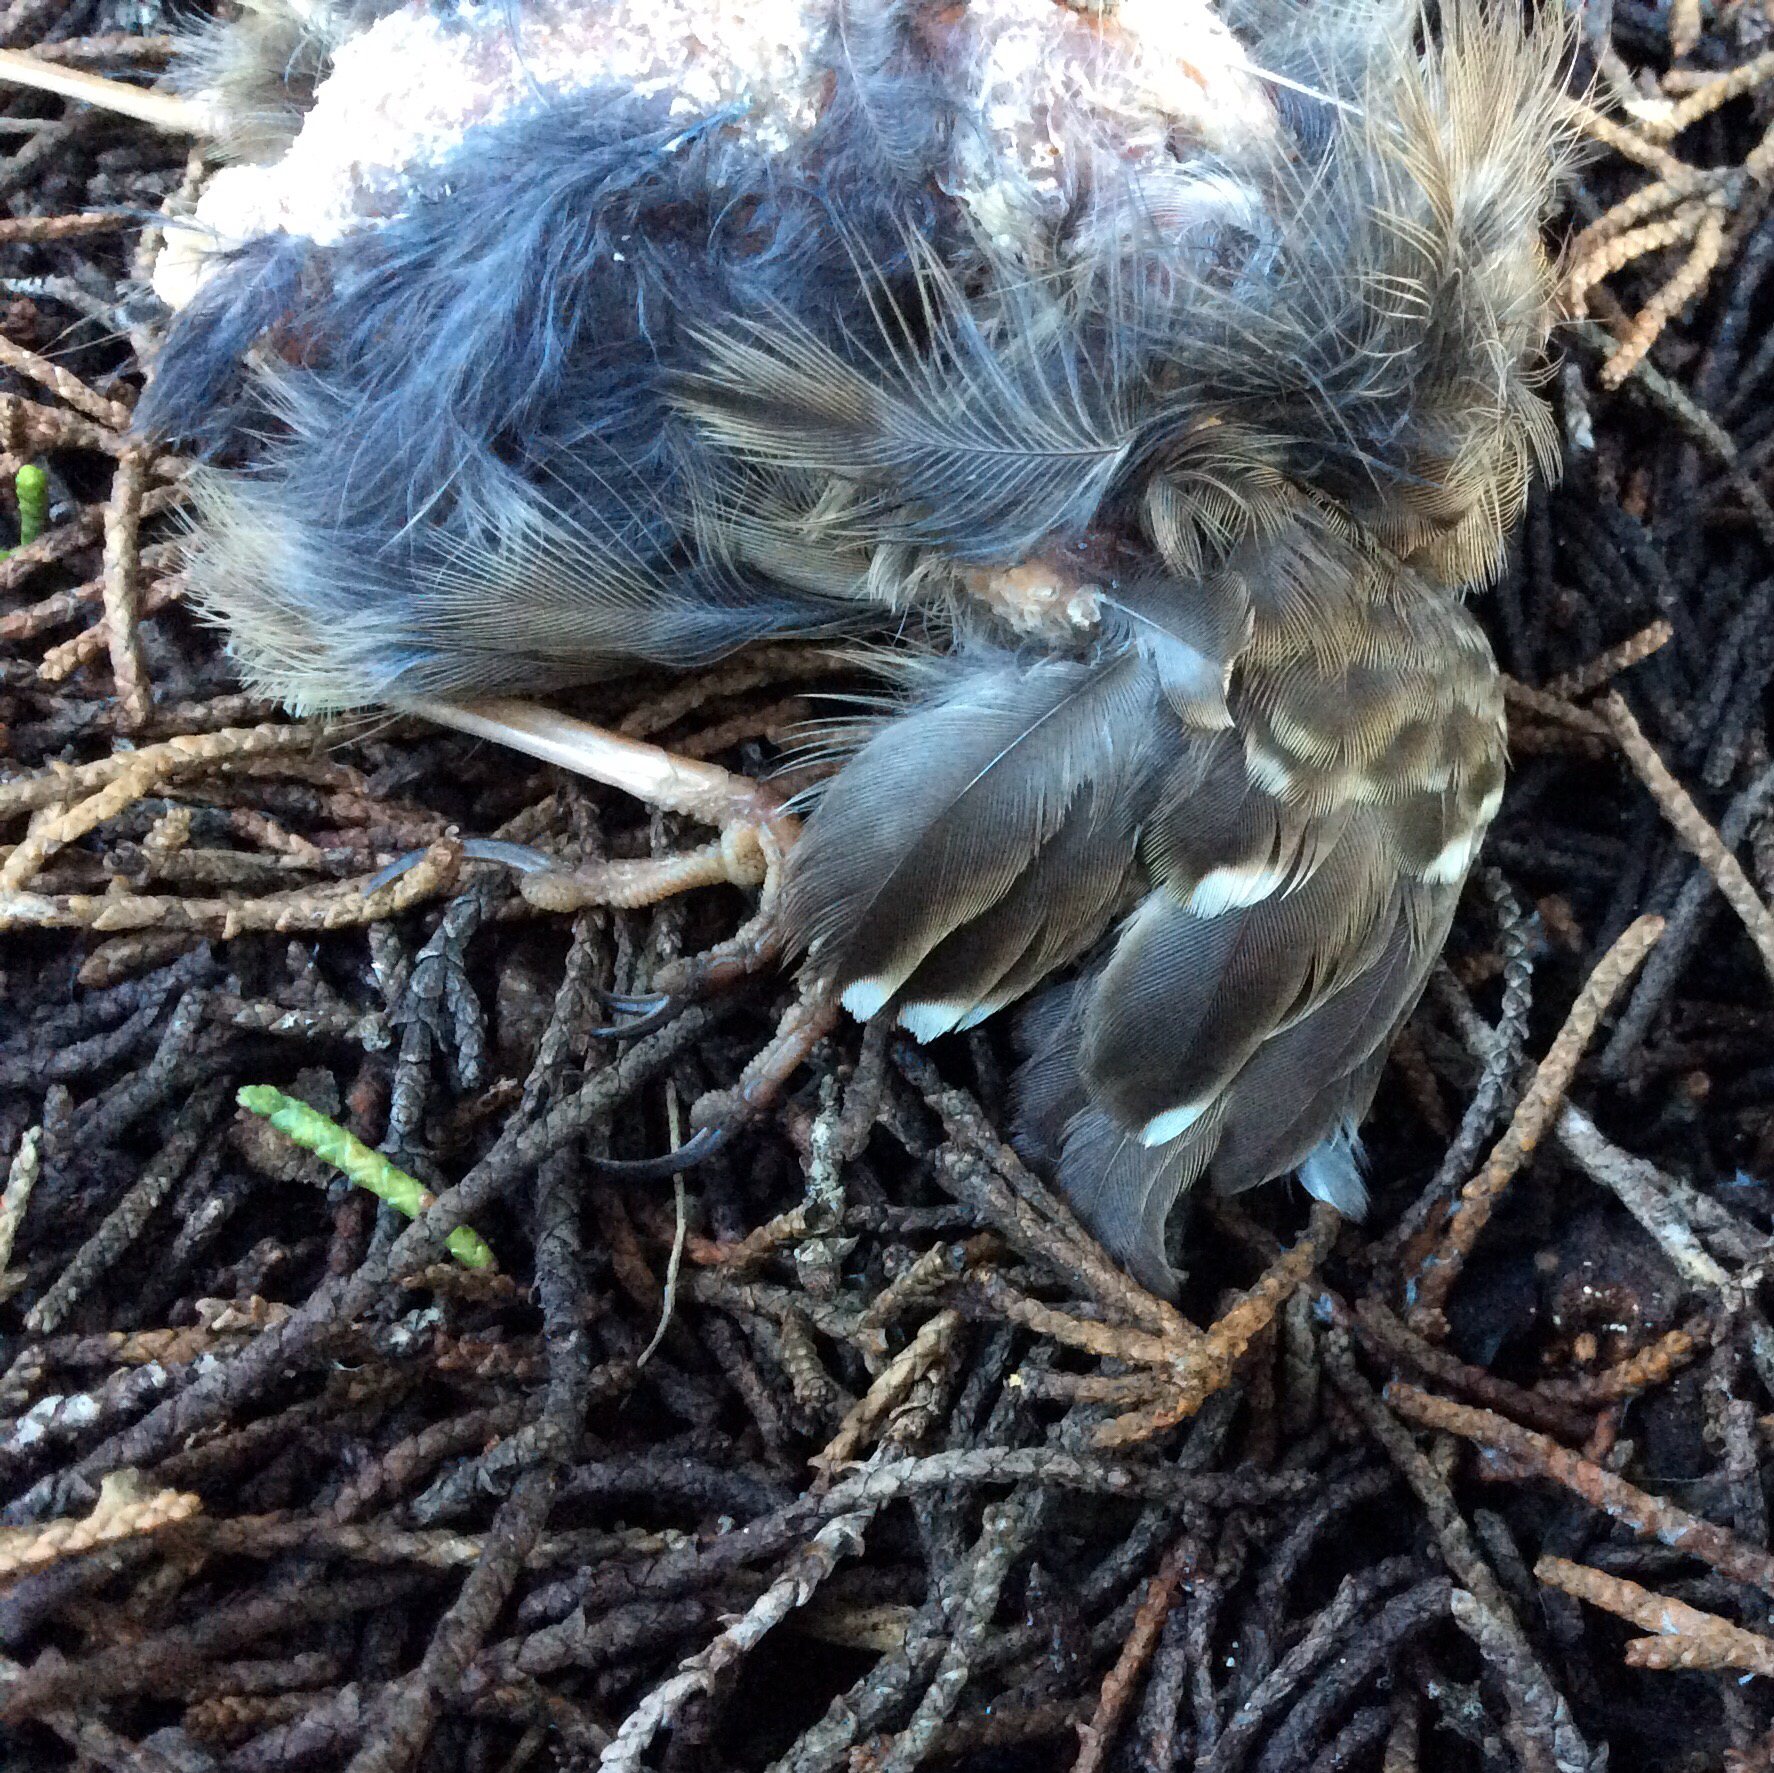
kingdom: Animalia
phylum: Chordata
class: Aves
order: Passeriformes
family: Passerellidae
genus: Zonotrichia
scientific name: Zonotrichia
